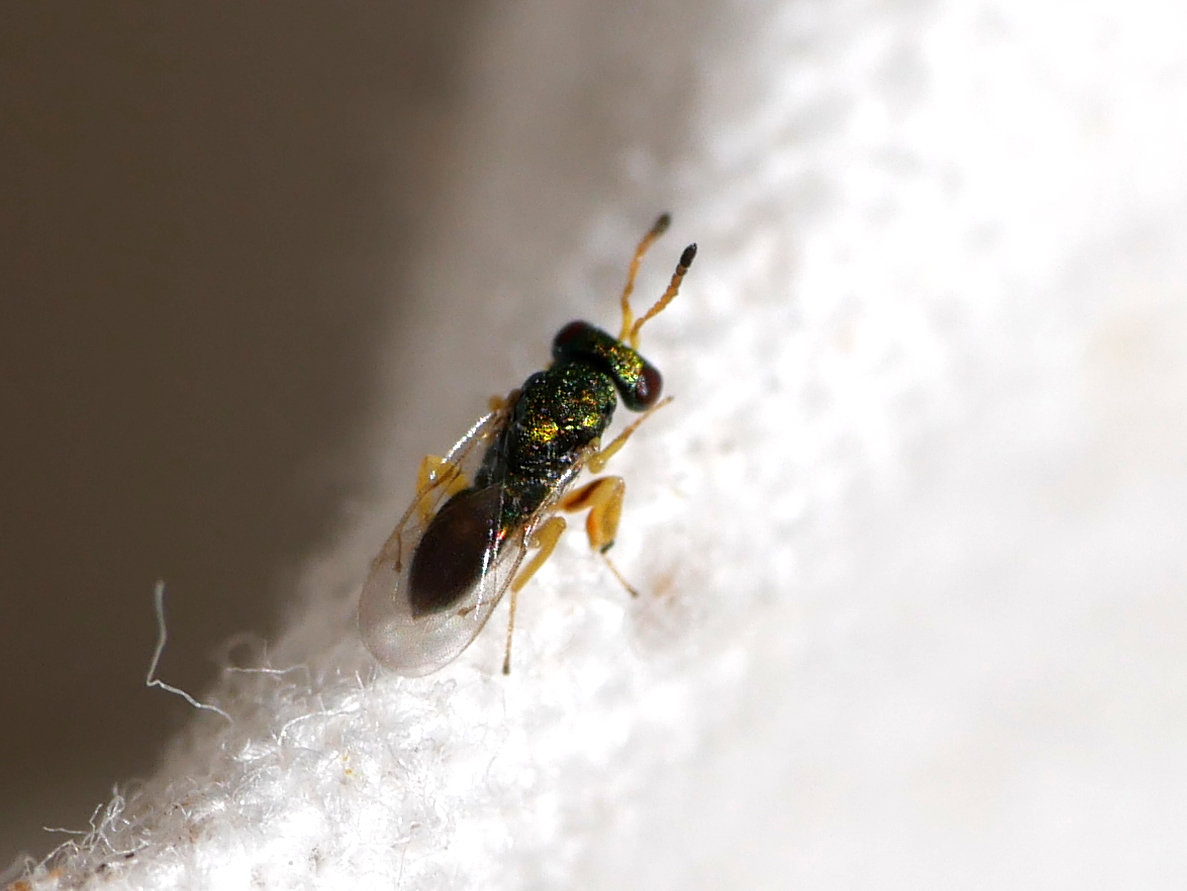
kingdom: Animalia
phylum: Arthropoda
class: Insecta
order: Hymenoptera
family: Pteromalidae
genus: Mesopolobus
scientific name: Mesopolobus tibialis
